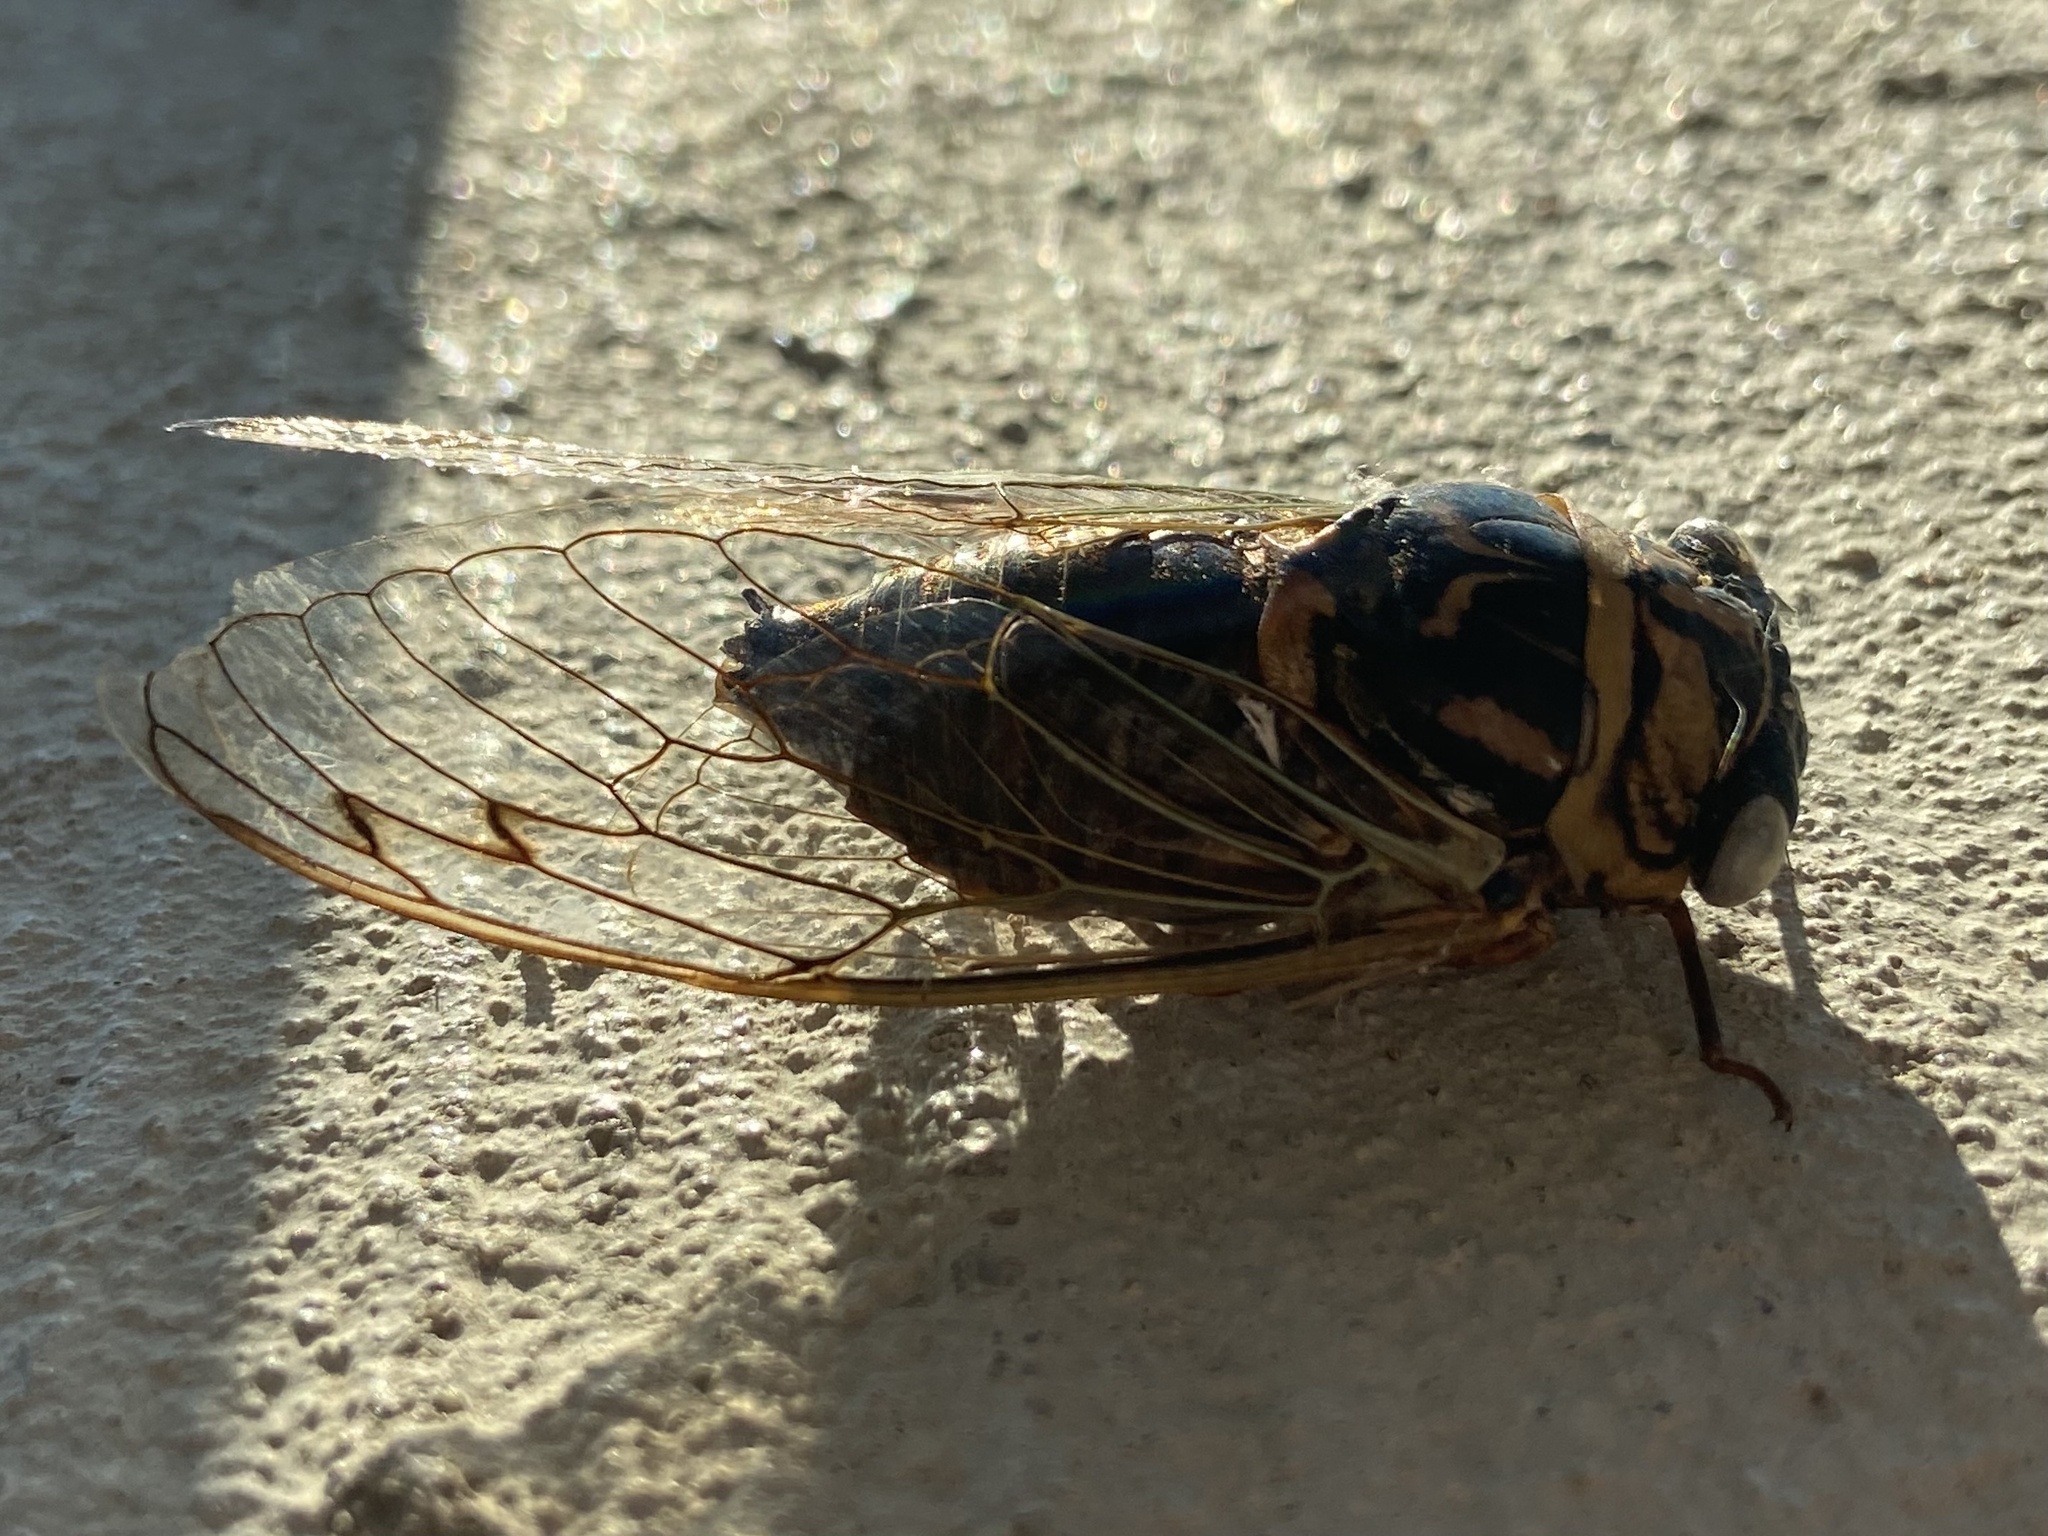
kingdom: Animalia
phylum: Arthropoda
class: Insecta
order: Hemiptera
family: Cicadidae
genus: Megatibicen
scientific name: Megatibicen resh
